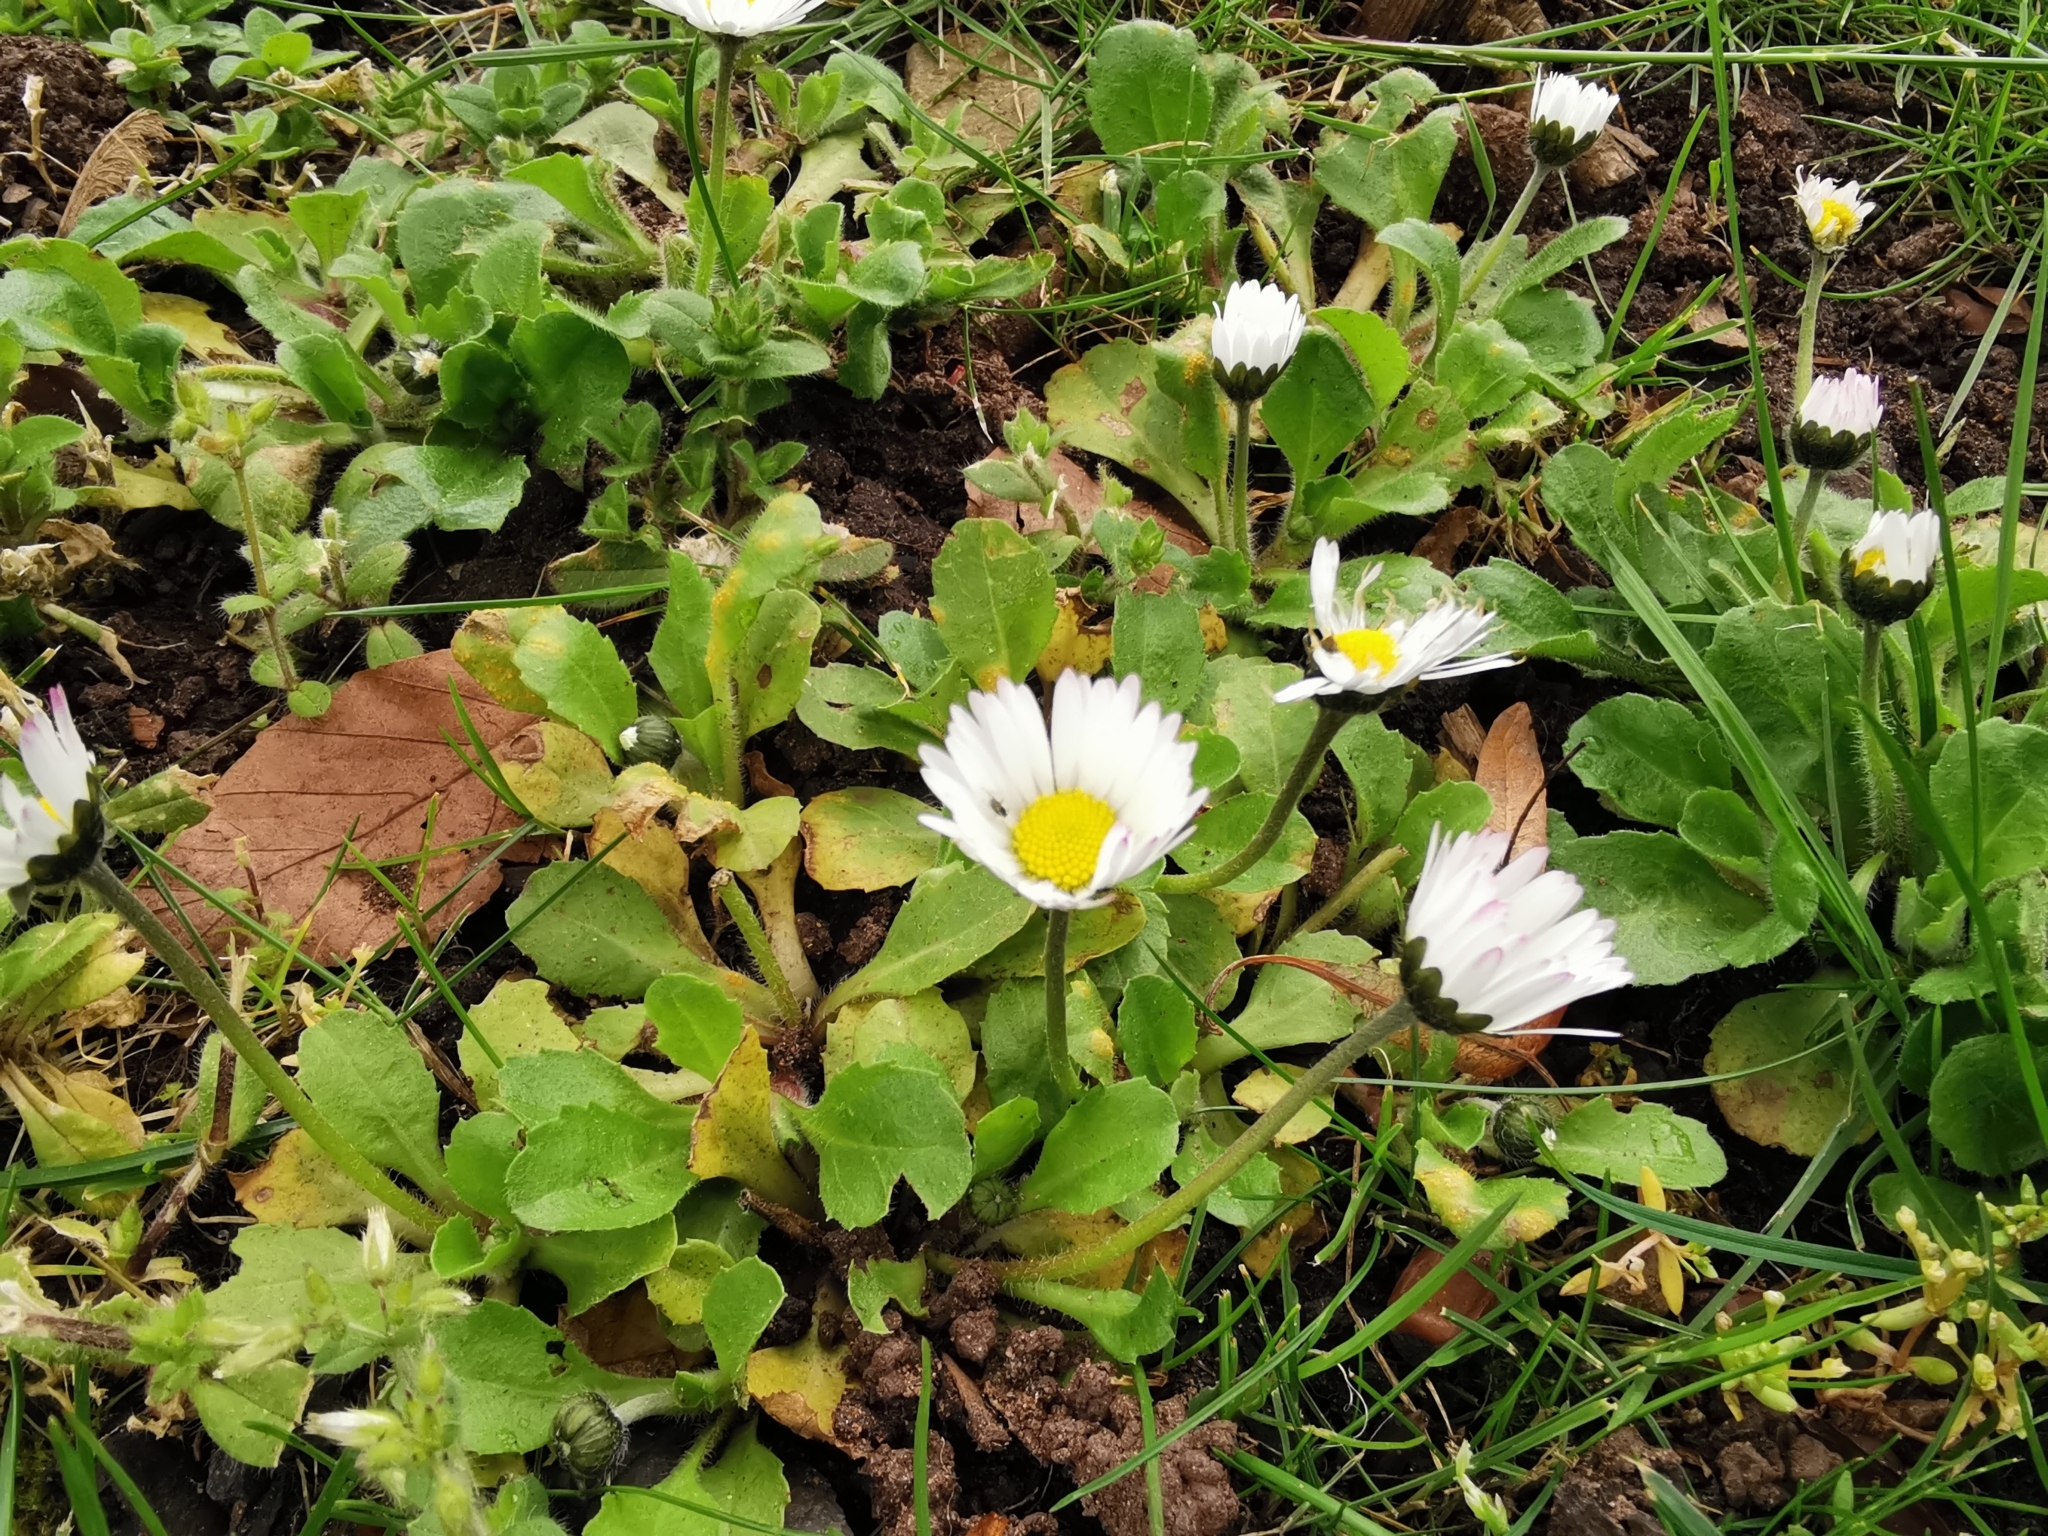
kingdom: Plantae
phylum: Tracheophyta
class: Magnoliopsida
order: Asterales
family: Asteraceae
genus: Bellis
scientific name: Bellis perennis
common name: Lawndaisy
